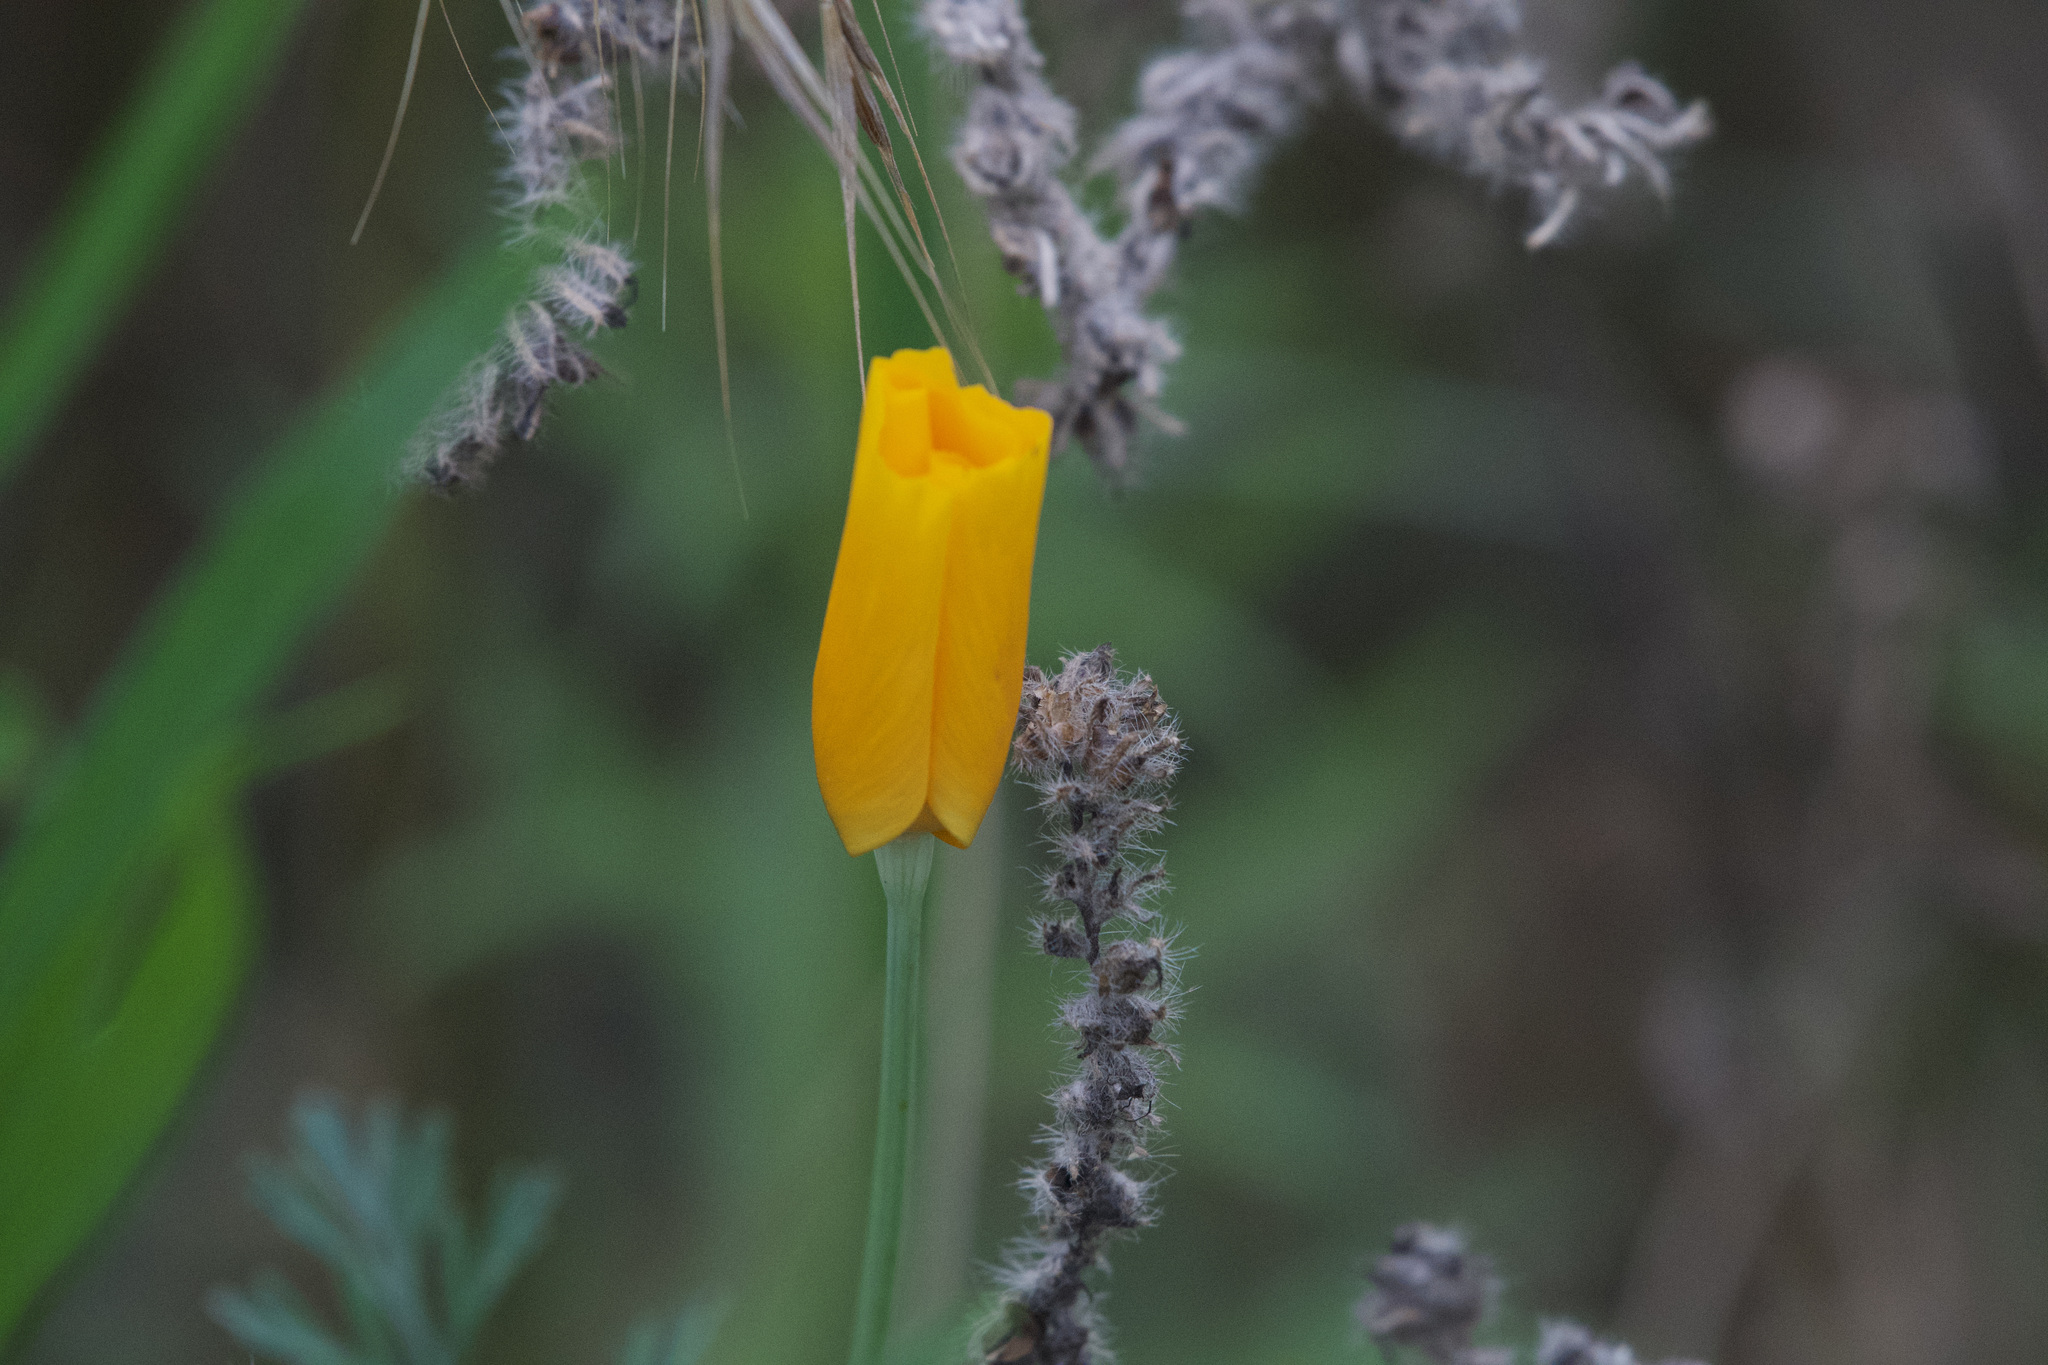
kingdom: Plantae
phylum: Tracheophyta
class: Magnoliopsida
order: Ranunculales
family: Papaveraceae
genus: Eschscholzia
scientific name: Eschscholzia californica
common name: California poppy
